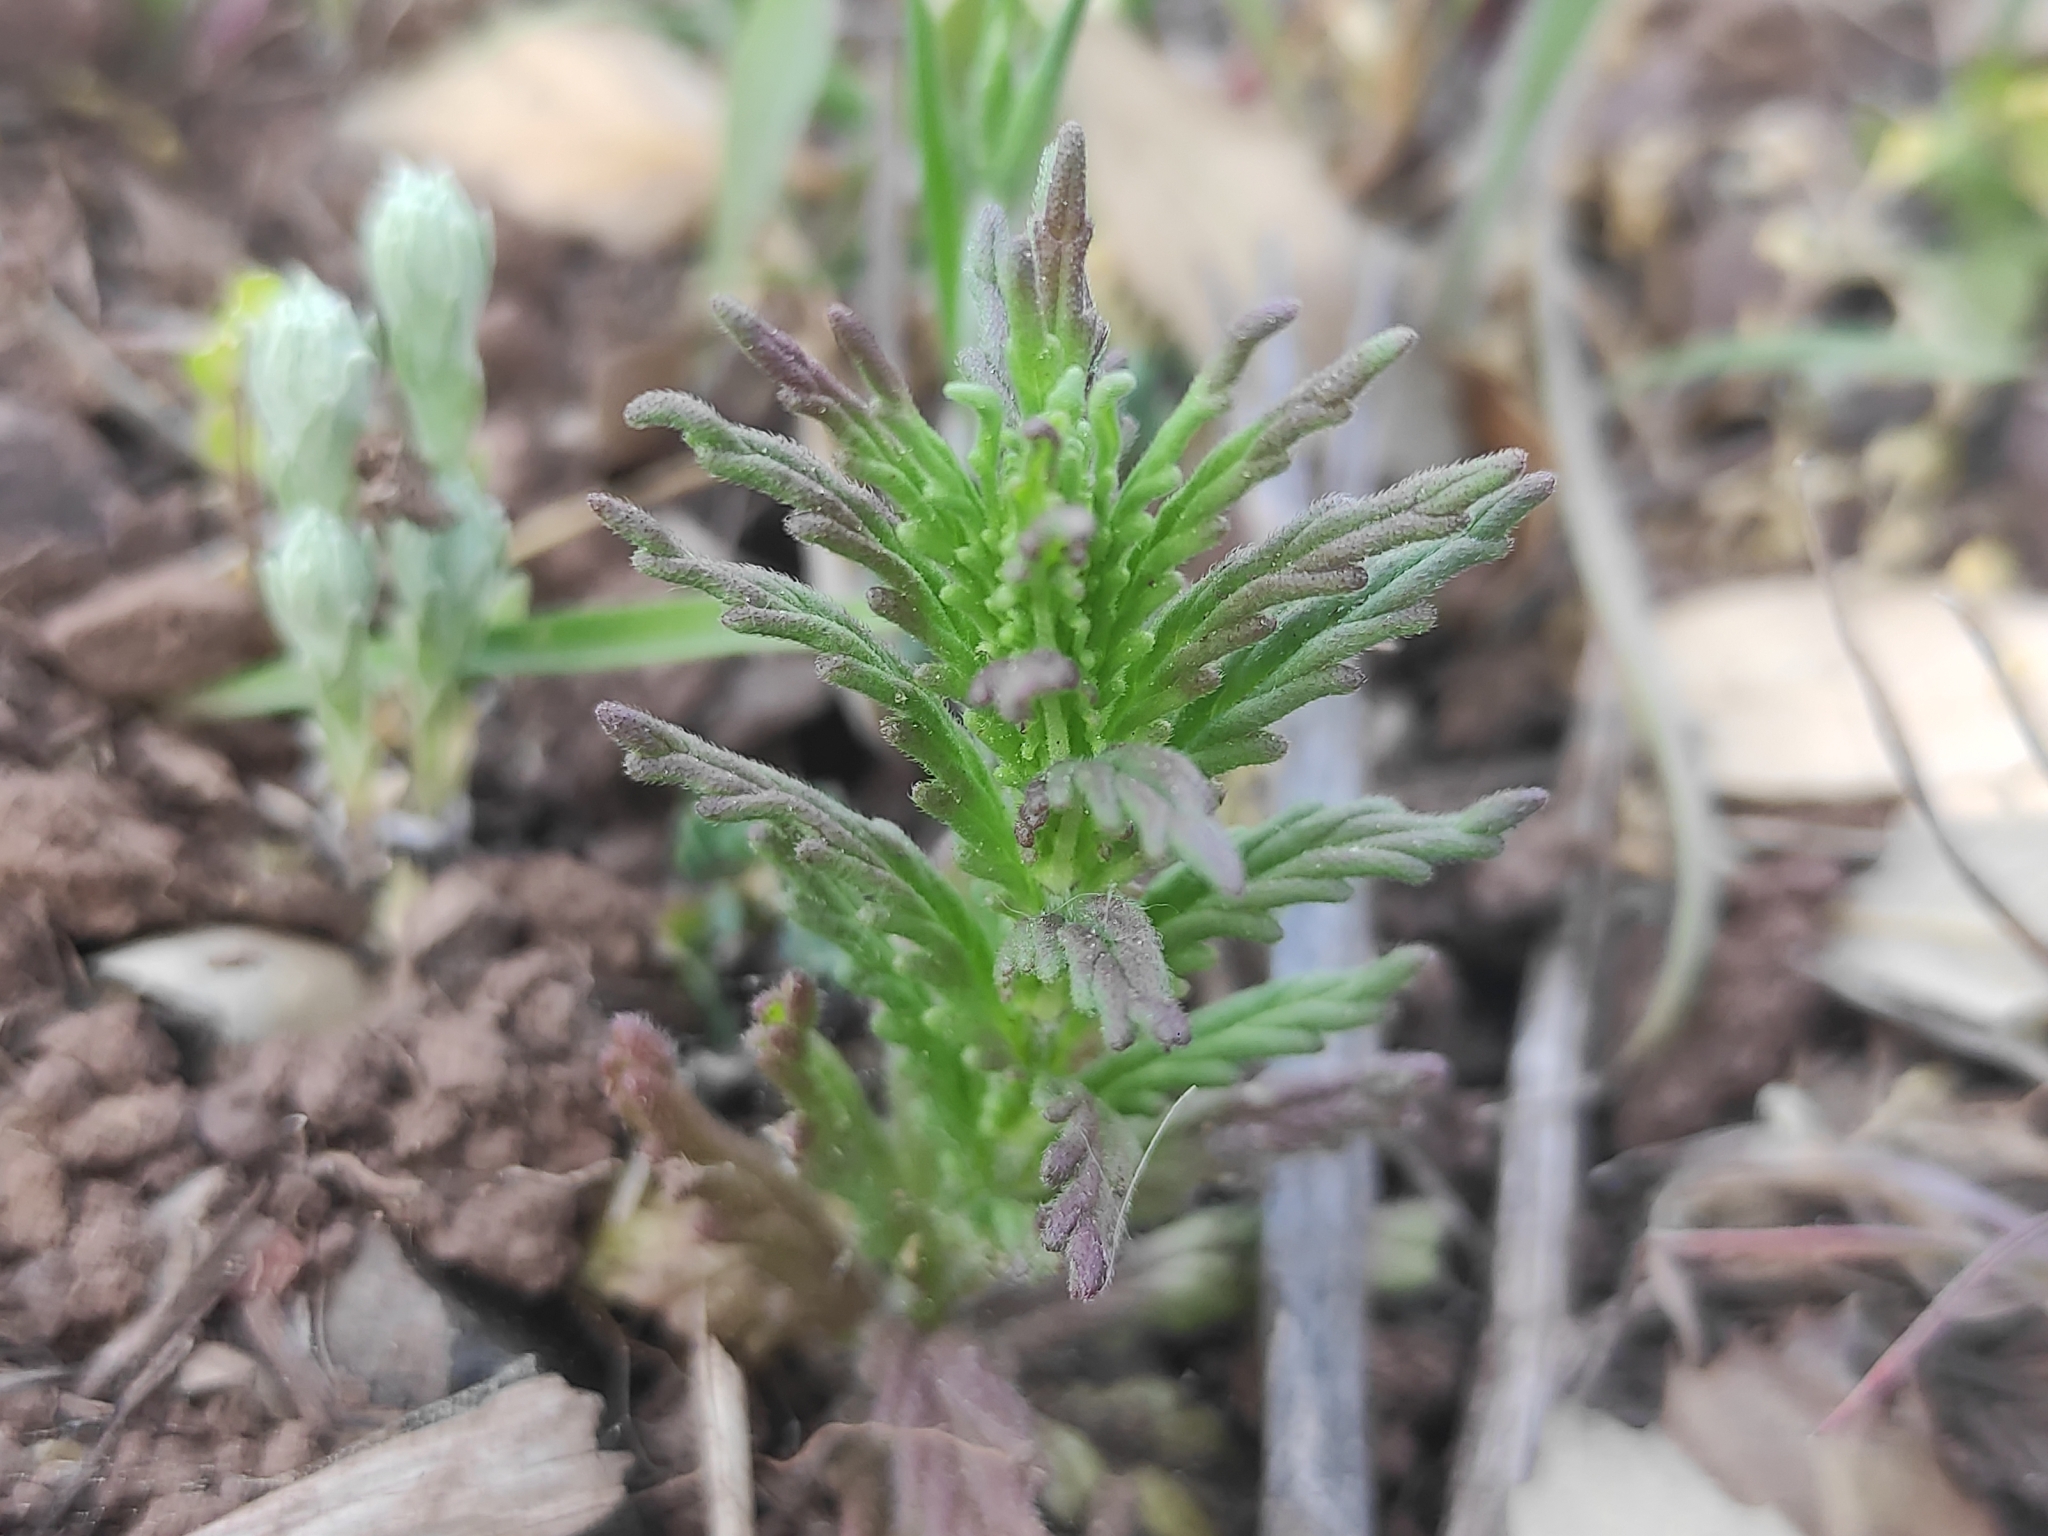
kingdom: Plantae
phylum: Tracheophyta
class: Magnoliopsida
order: Lamiales
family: Orobanchaceae
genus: Bellardia
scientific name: Bellardia trixago
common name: Mediterranean lineseed
